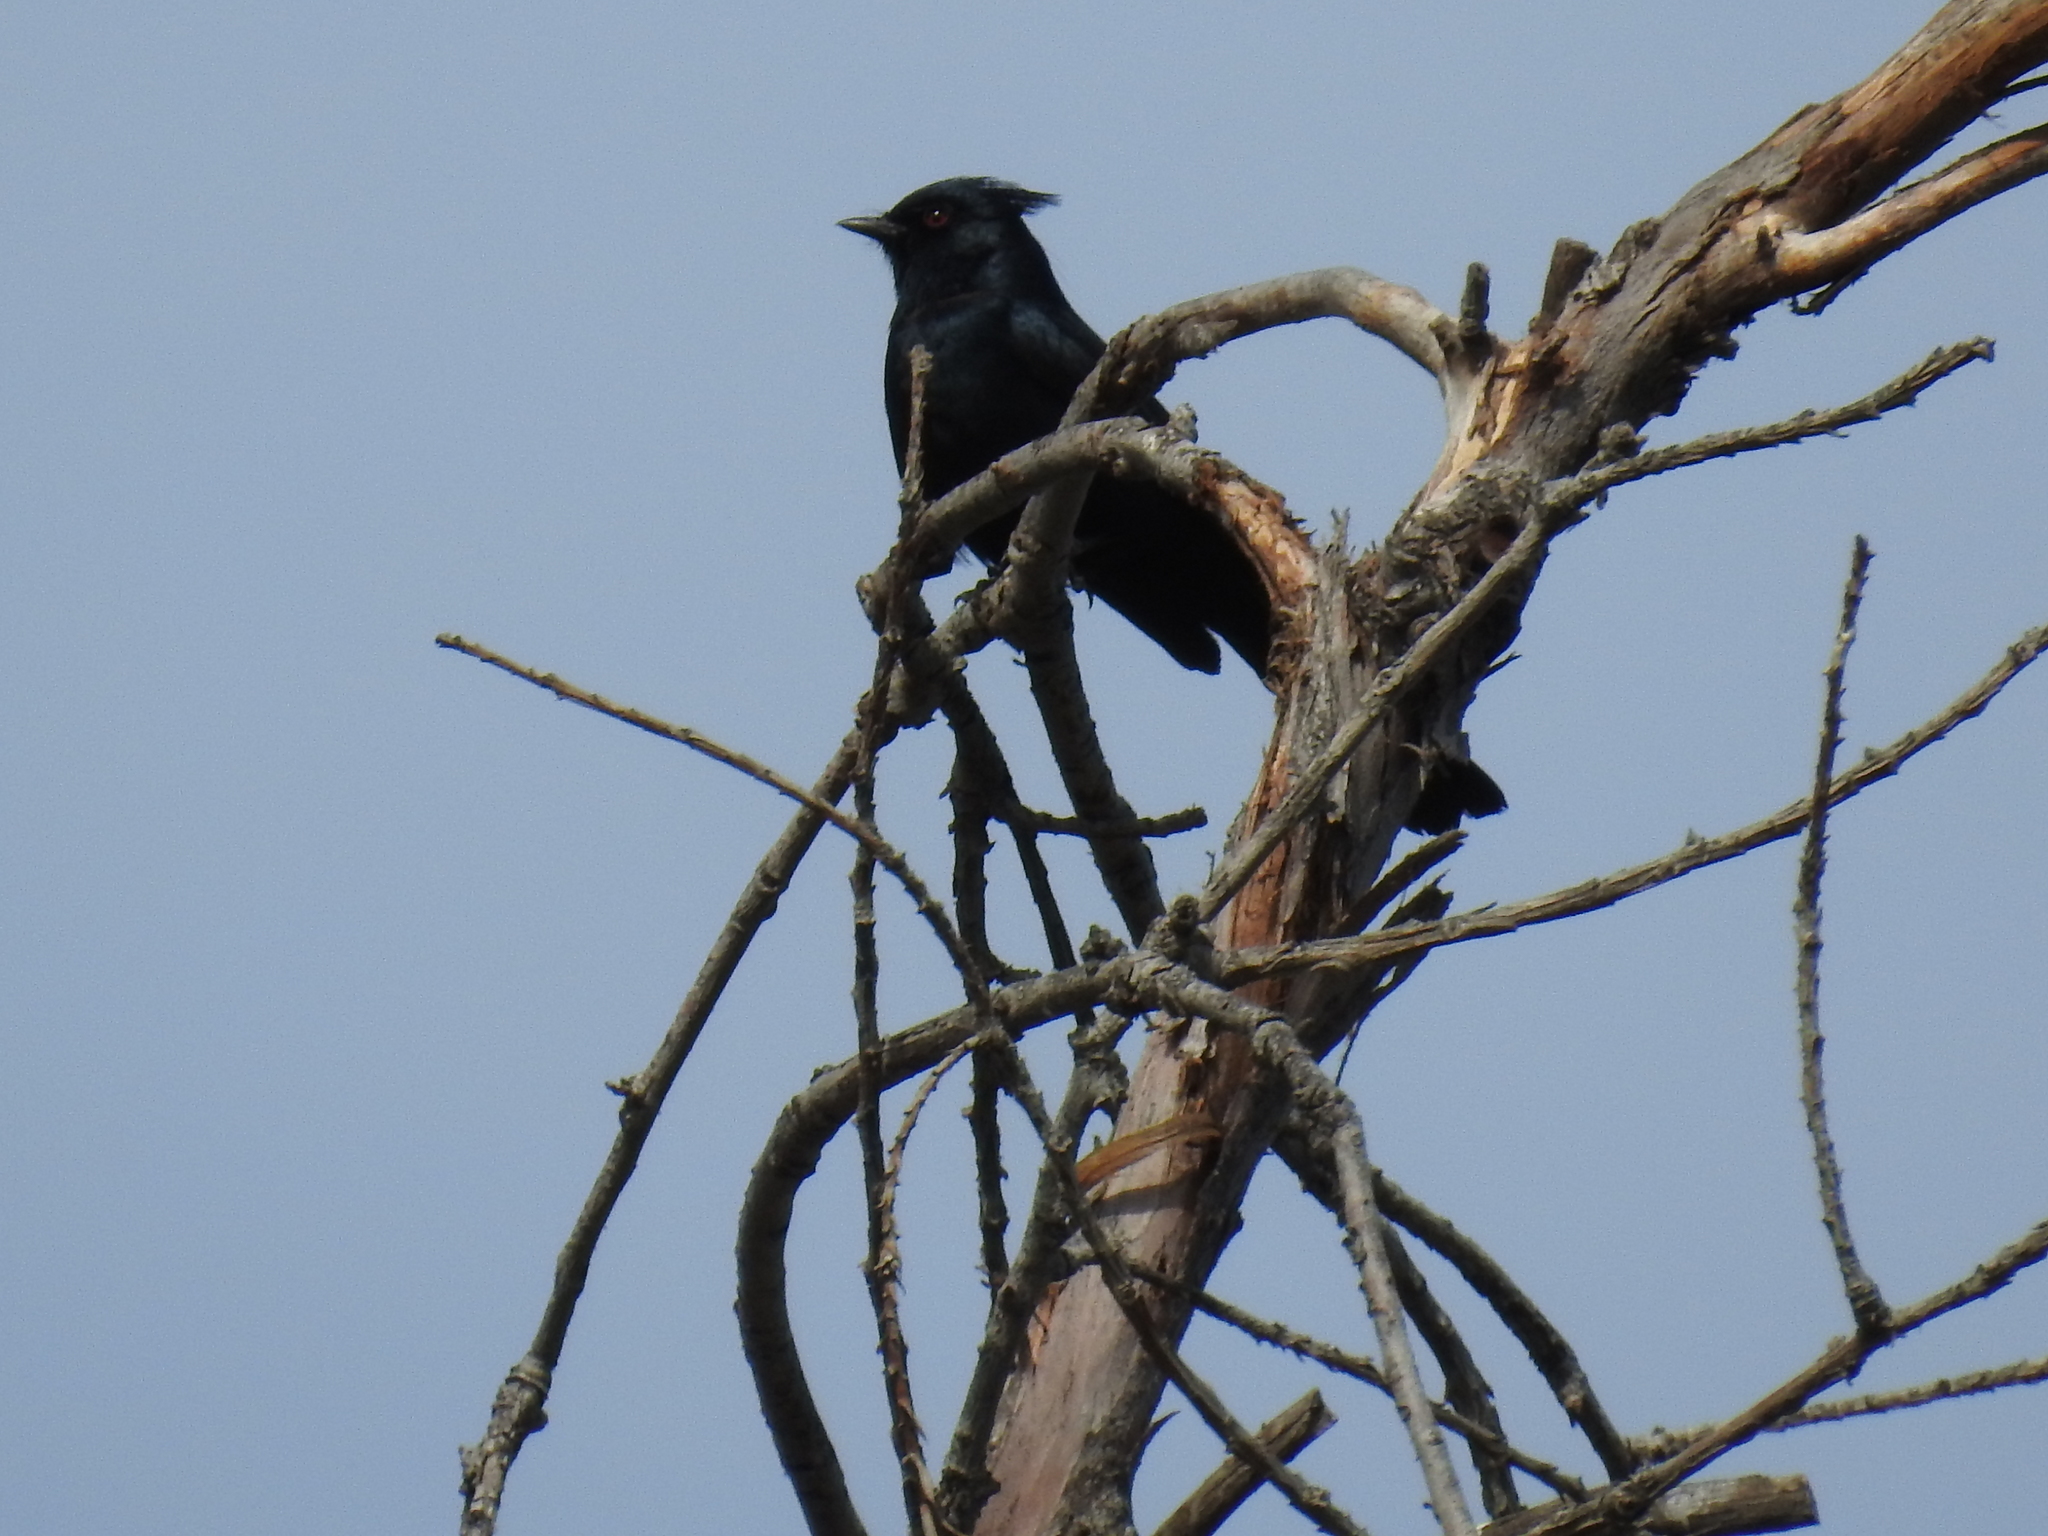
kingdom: Animalia
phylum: Chordata
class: Aves
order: Passeriformes
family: Ptilogonatidae
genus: Phainopepla
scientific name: Phainopepla nitens
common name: Phainopepla
